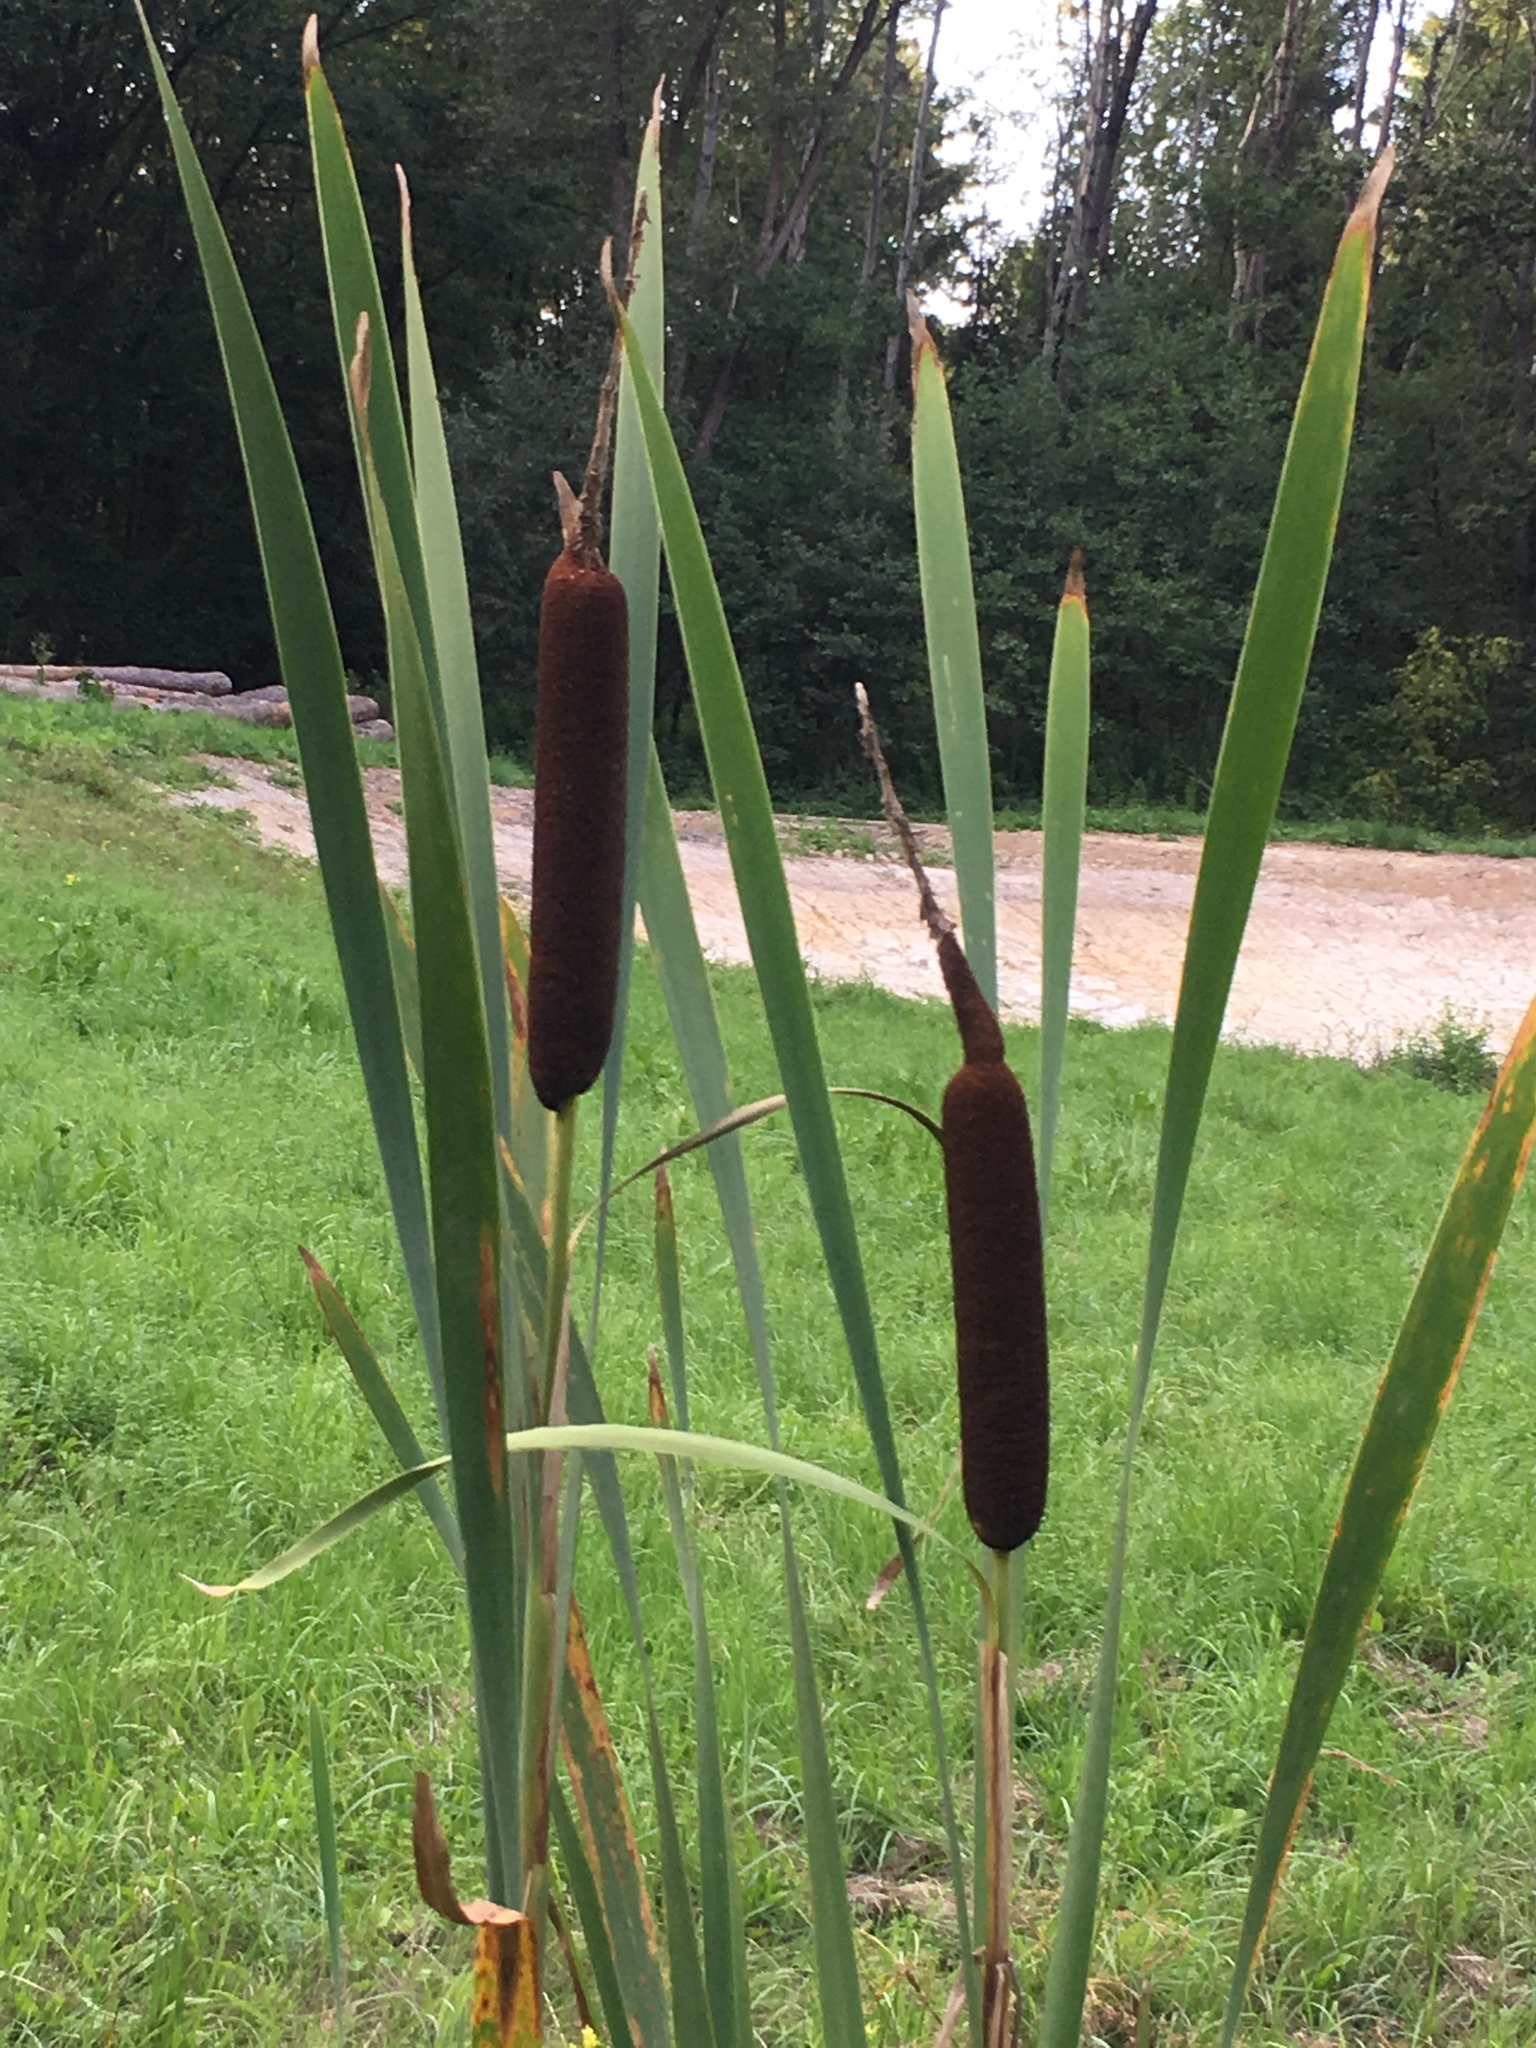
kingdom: Plantae
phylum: Tracheophyta
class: Liliopsida
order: Poales
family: Typhaceae
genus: Typha
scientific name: Typha latifolia
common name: Broadleaf cattail
